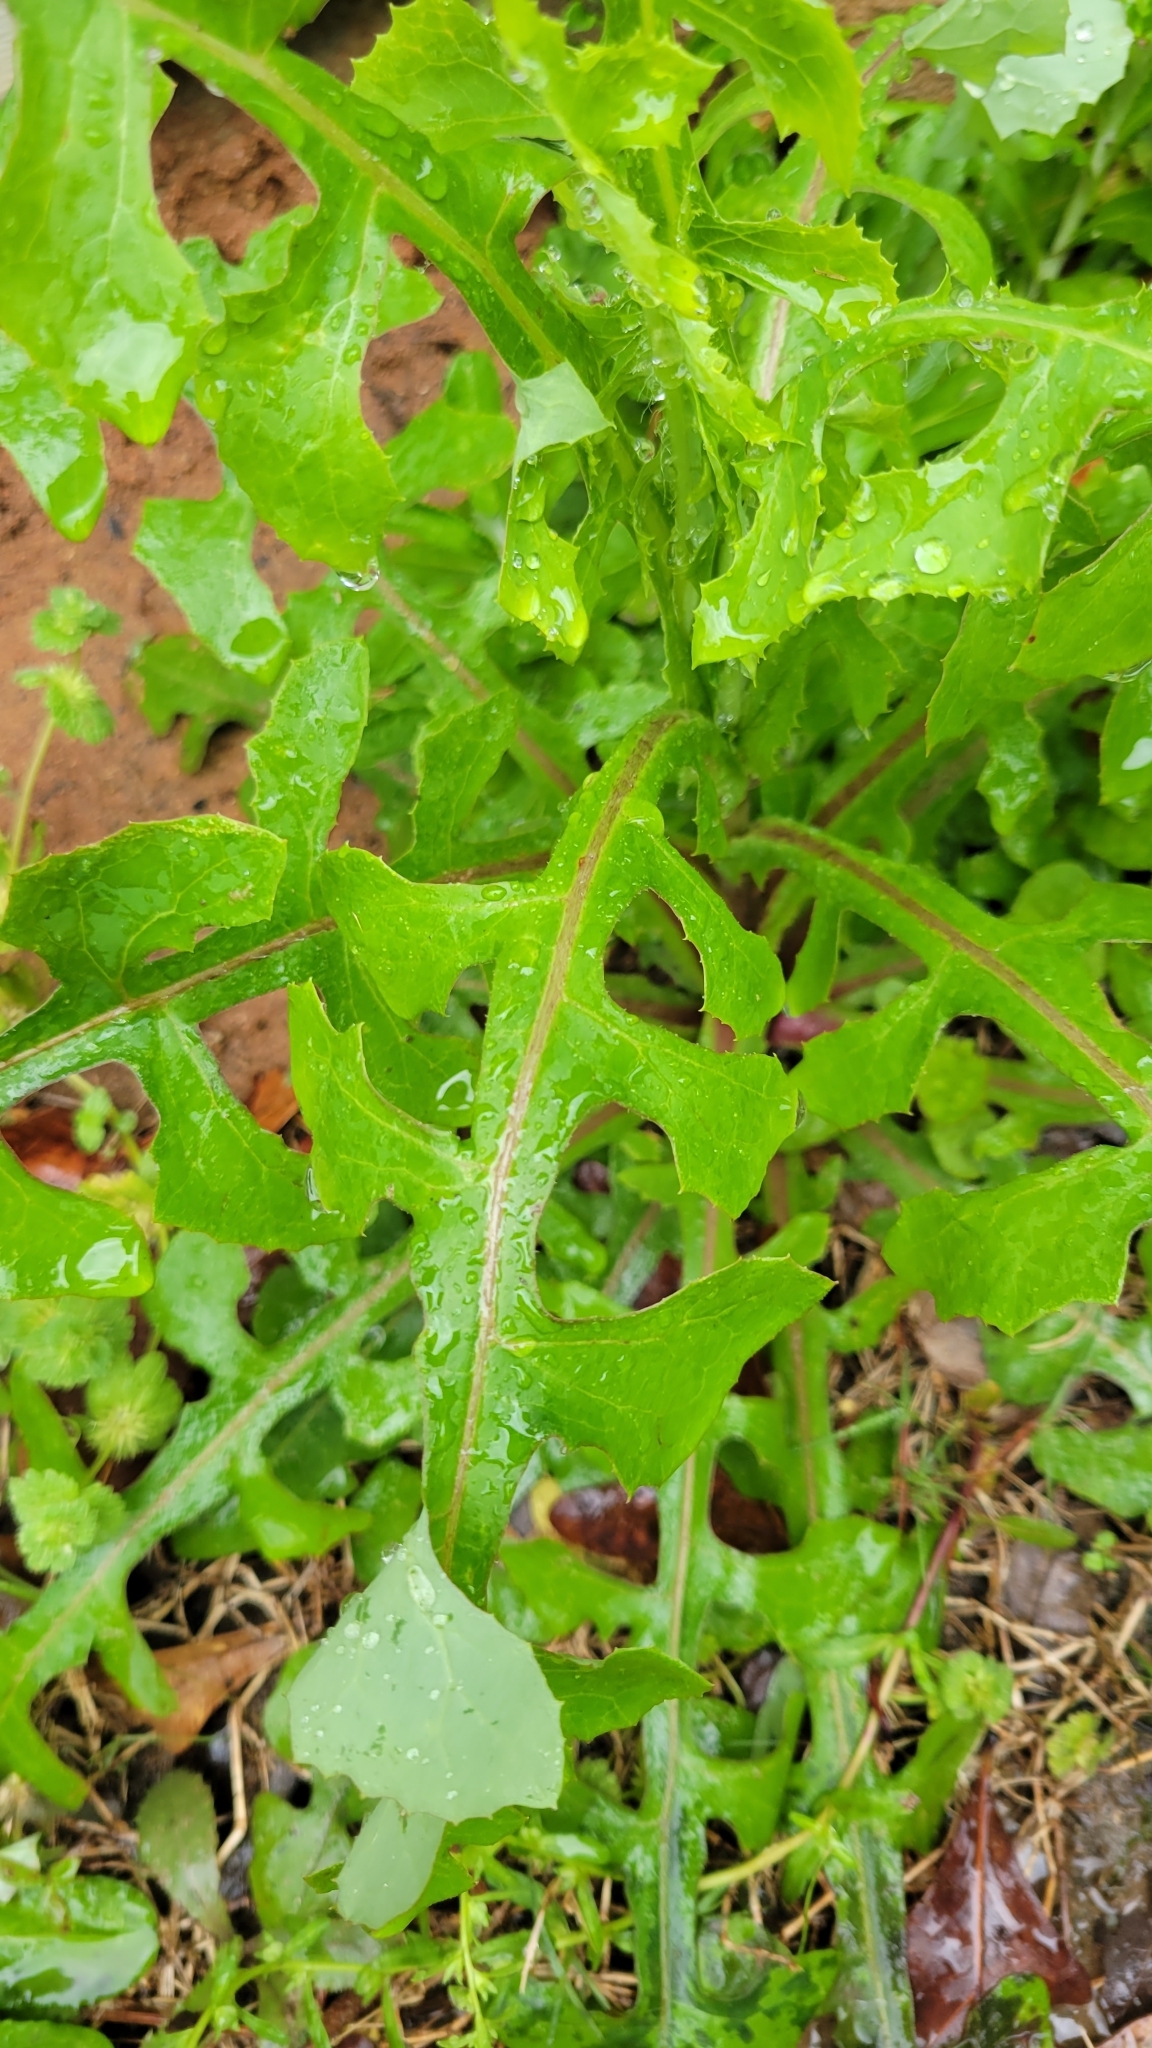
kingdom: Plantae
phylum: Tracheophyta
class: Magnoliopsida
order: Asterales
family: Asteraceae
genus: Lactuca
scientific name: Lactuca hirsuta
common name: Hairy lettuce
